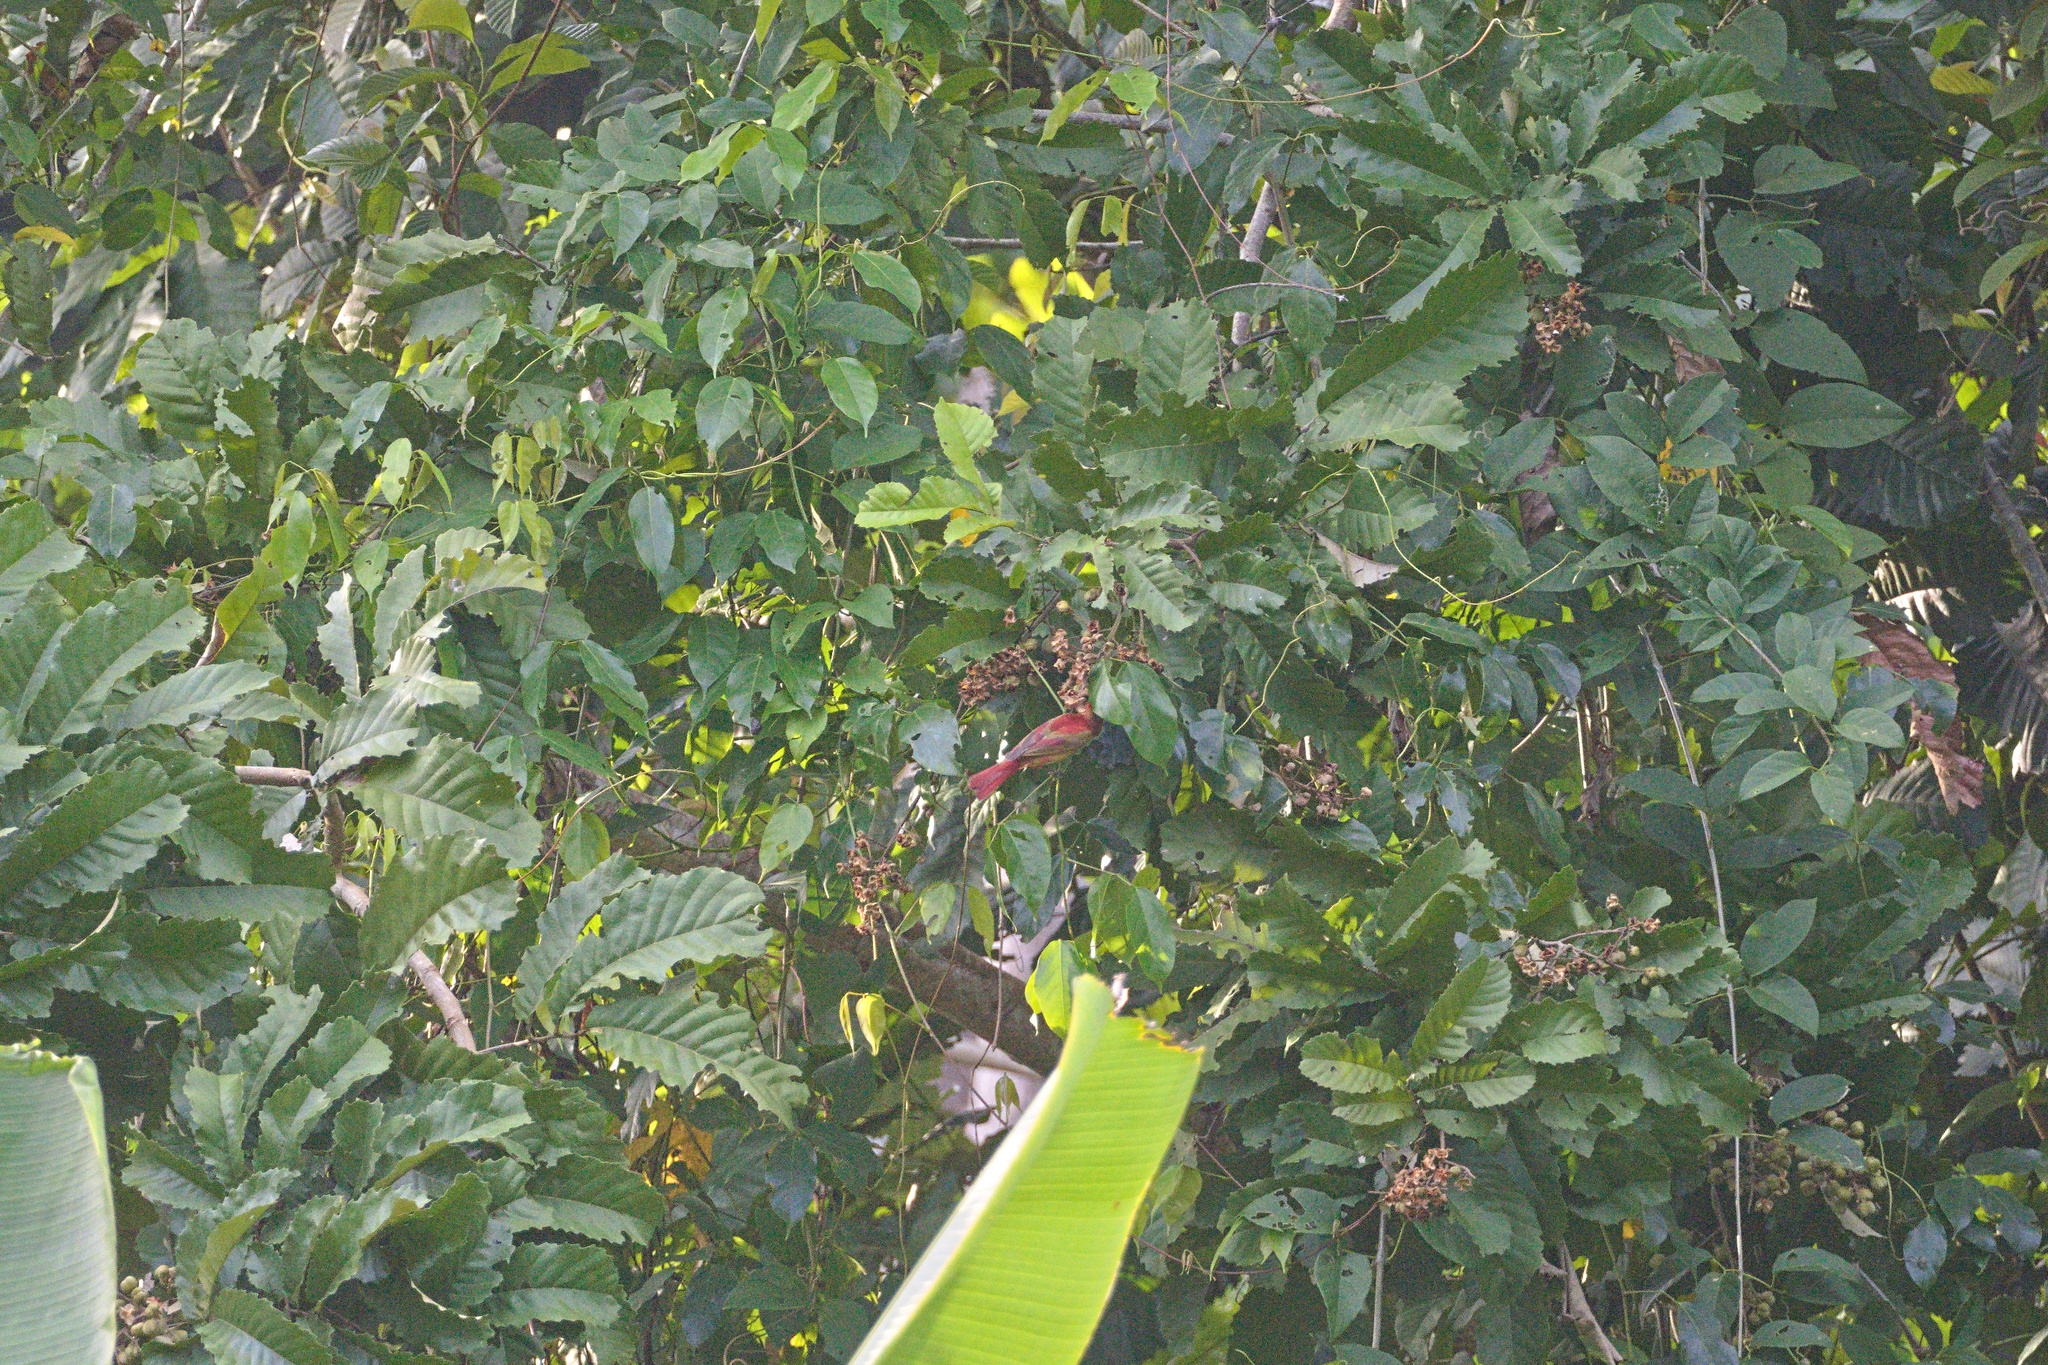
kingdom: Animalia
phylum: Chordata
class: Aves
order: Passeriformes
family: Cardinalidae
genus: Piranga
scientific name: Piranga rubra
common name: Summer tanager
